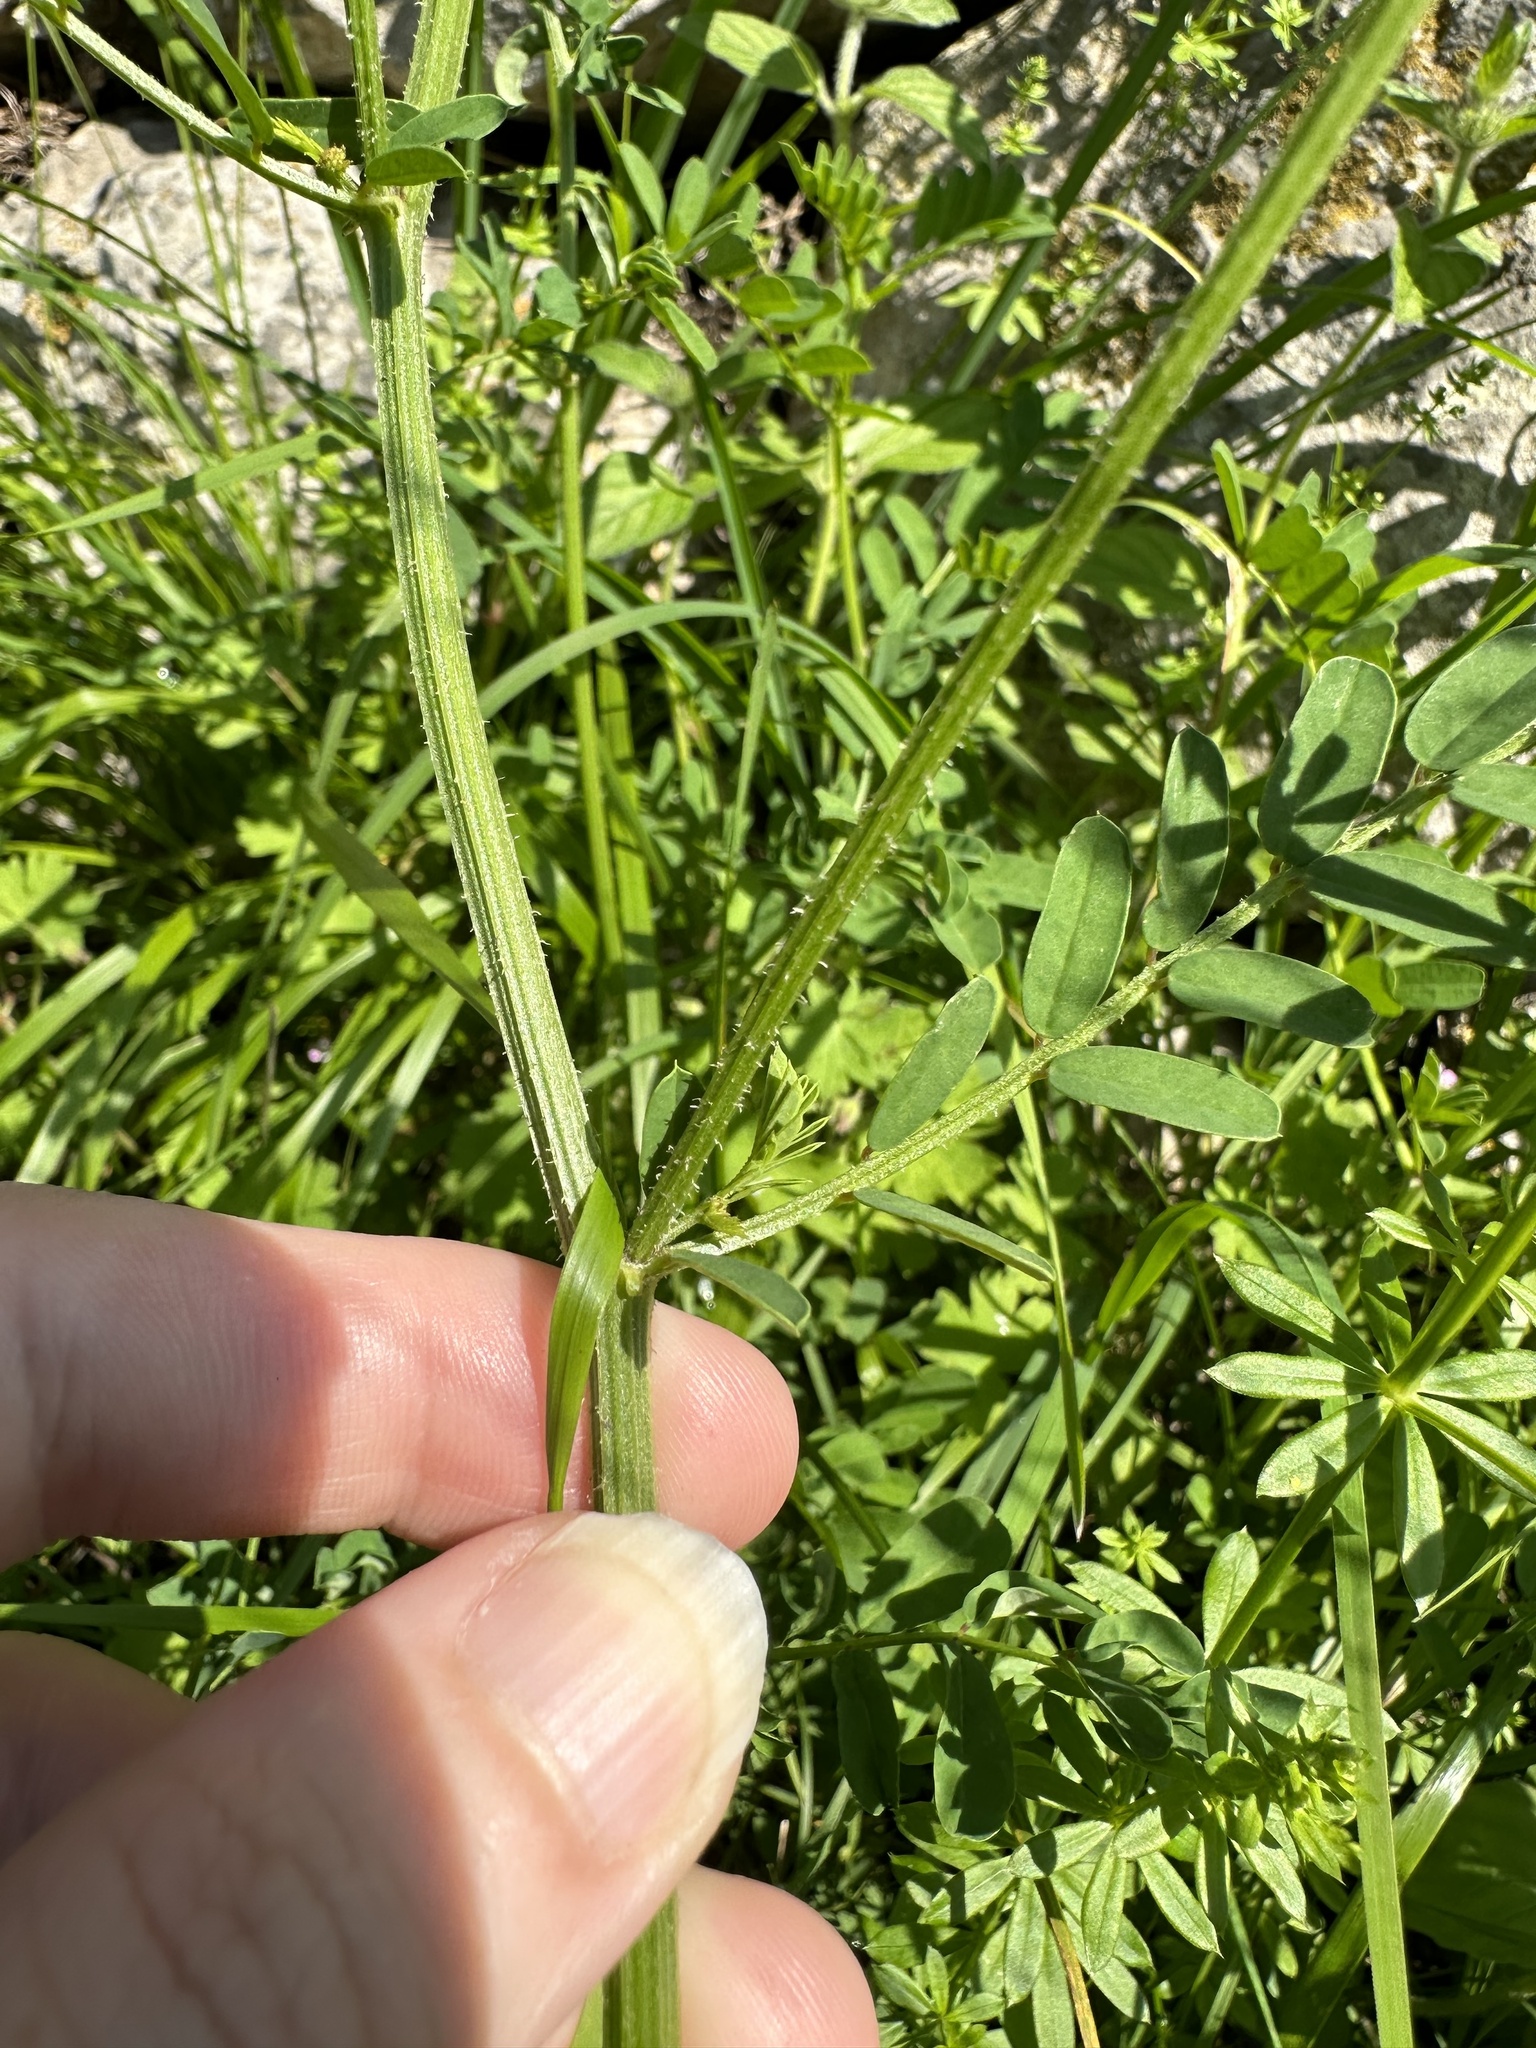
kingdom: Plantae
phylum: Tracheophyta
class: Magnoliopsida
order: Fabales
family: Fabaceae
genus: Coronilla
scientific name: Coronilla varia
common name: Crownvetch
